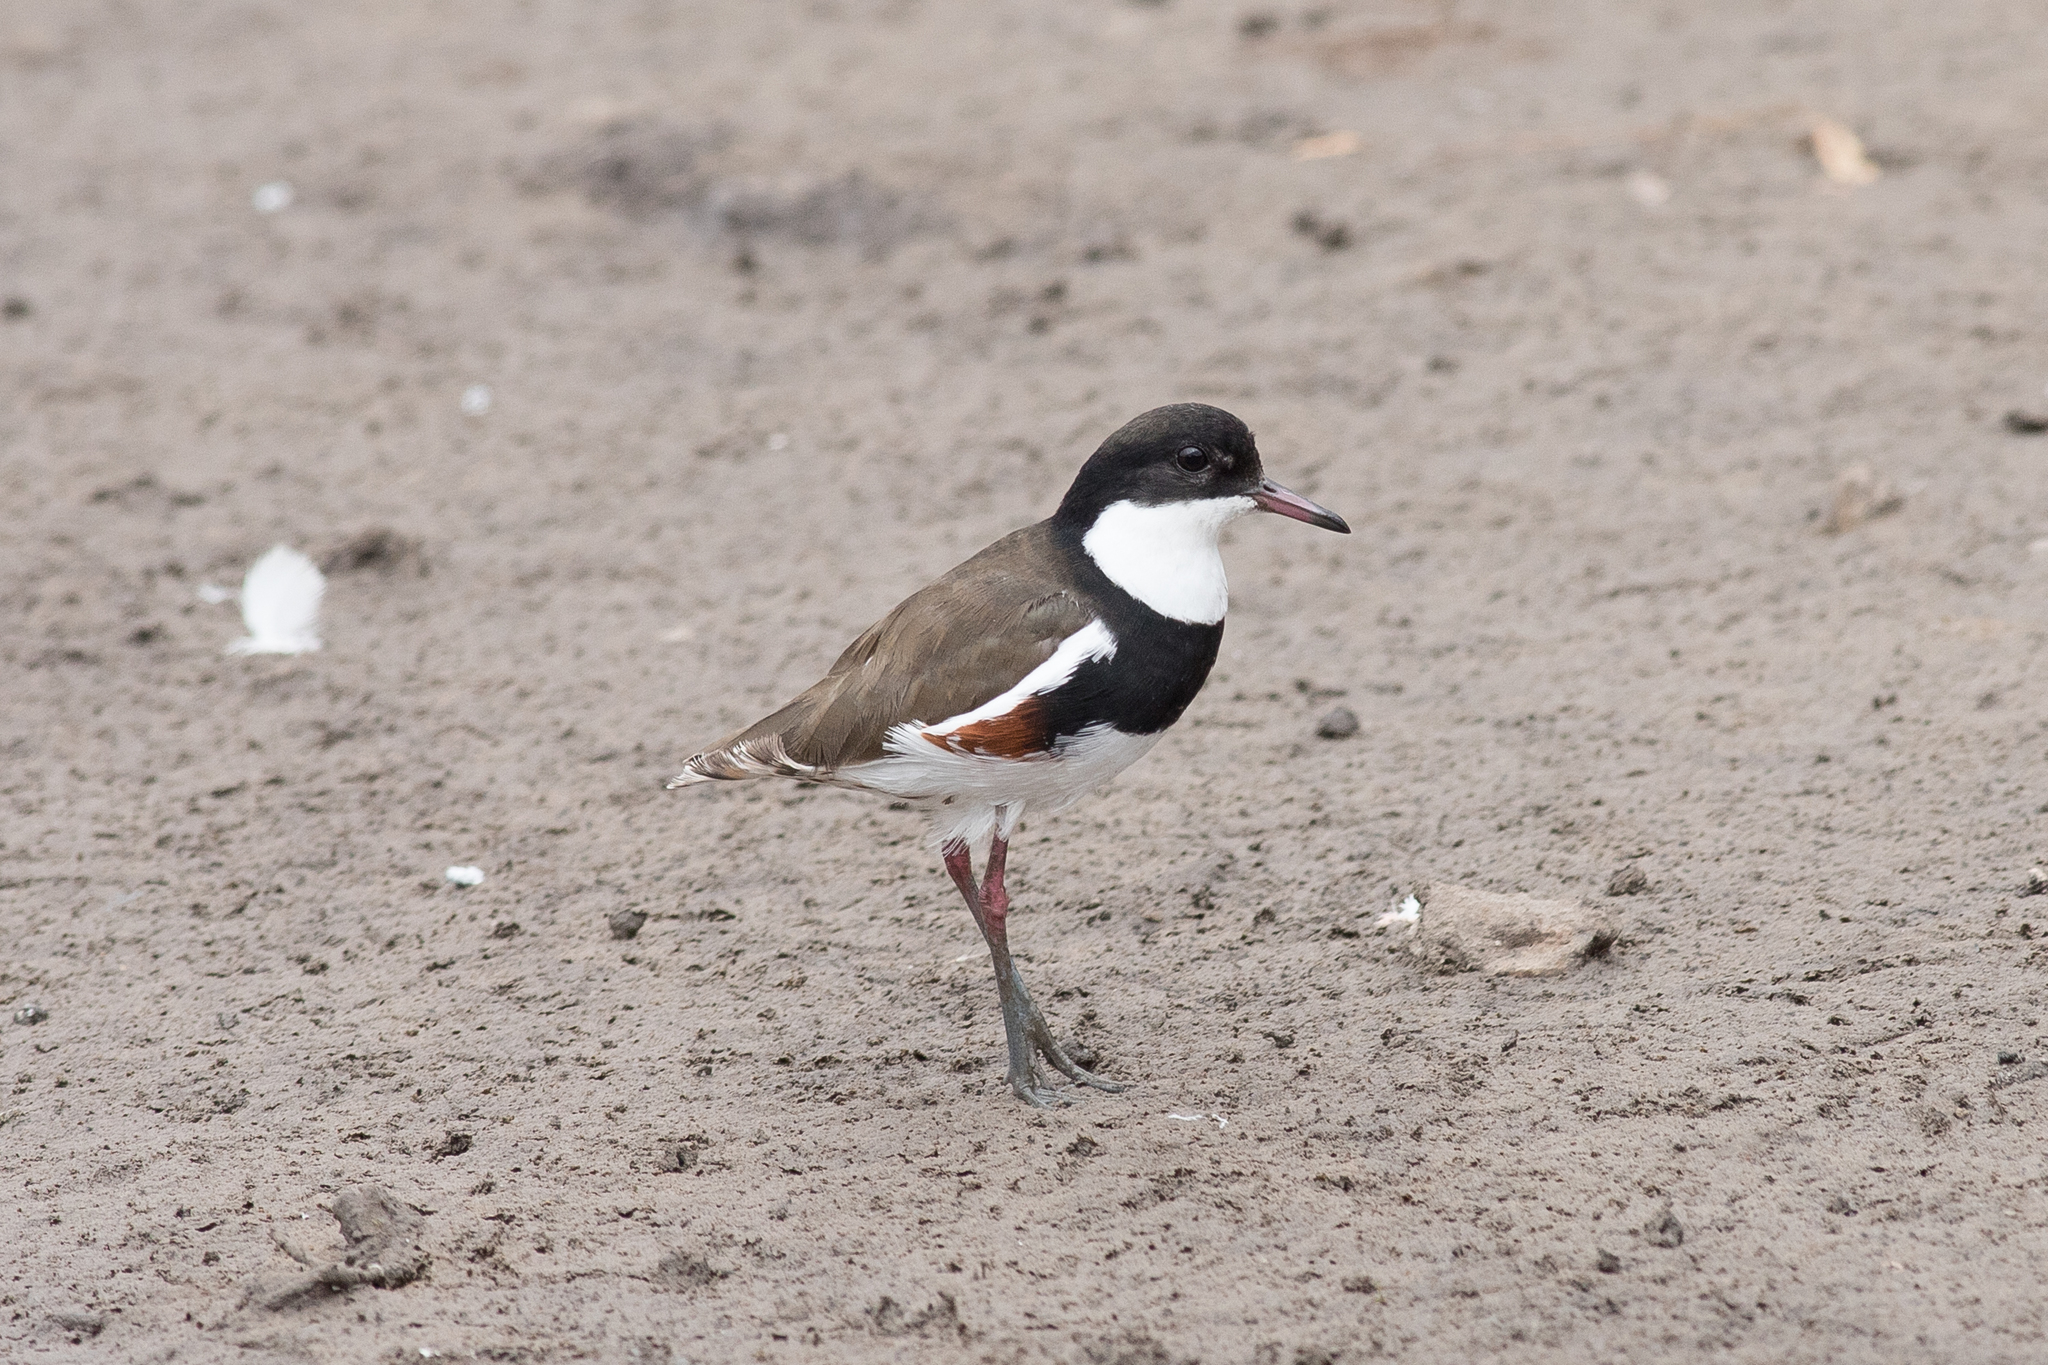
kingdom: Animalia
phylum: Chordata
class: Aves
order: Charadriiformes
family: Charadriidae
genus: Erythrogonys
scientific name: Erythrogonys cinctus
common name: Red-kneed dotterel
